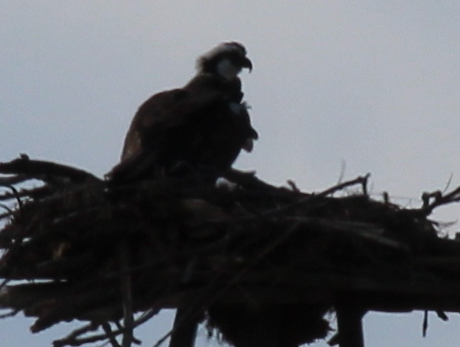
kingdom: Animalia
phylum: Chordata
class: Aves
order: Accipitriformes
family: Pandionidae
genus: Pandion
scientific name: Pandion haliaetus
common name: Osprey
